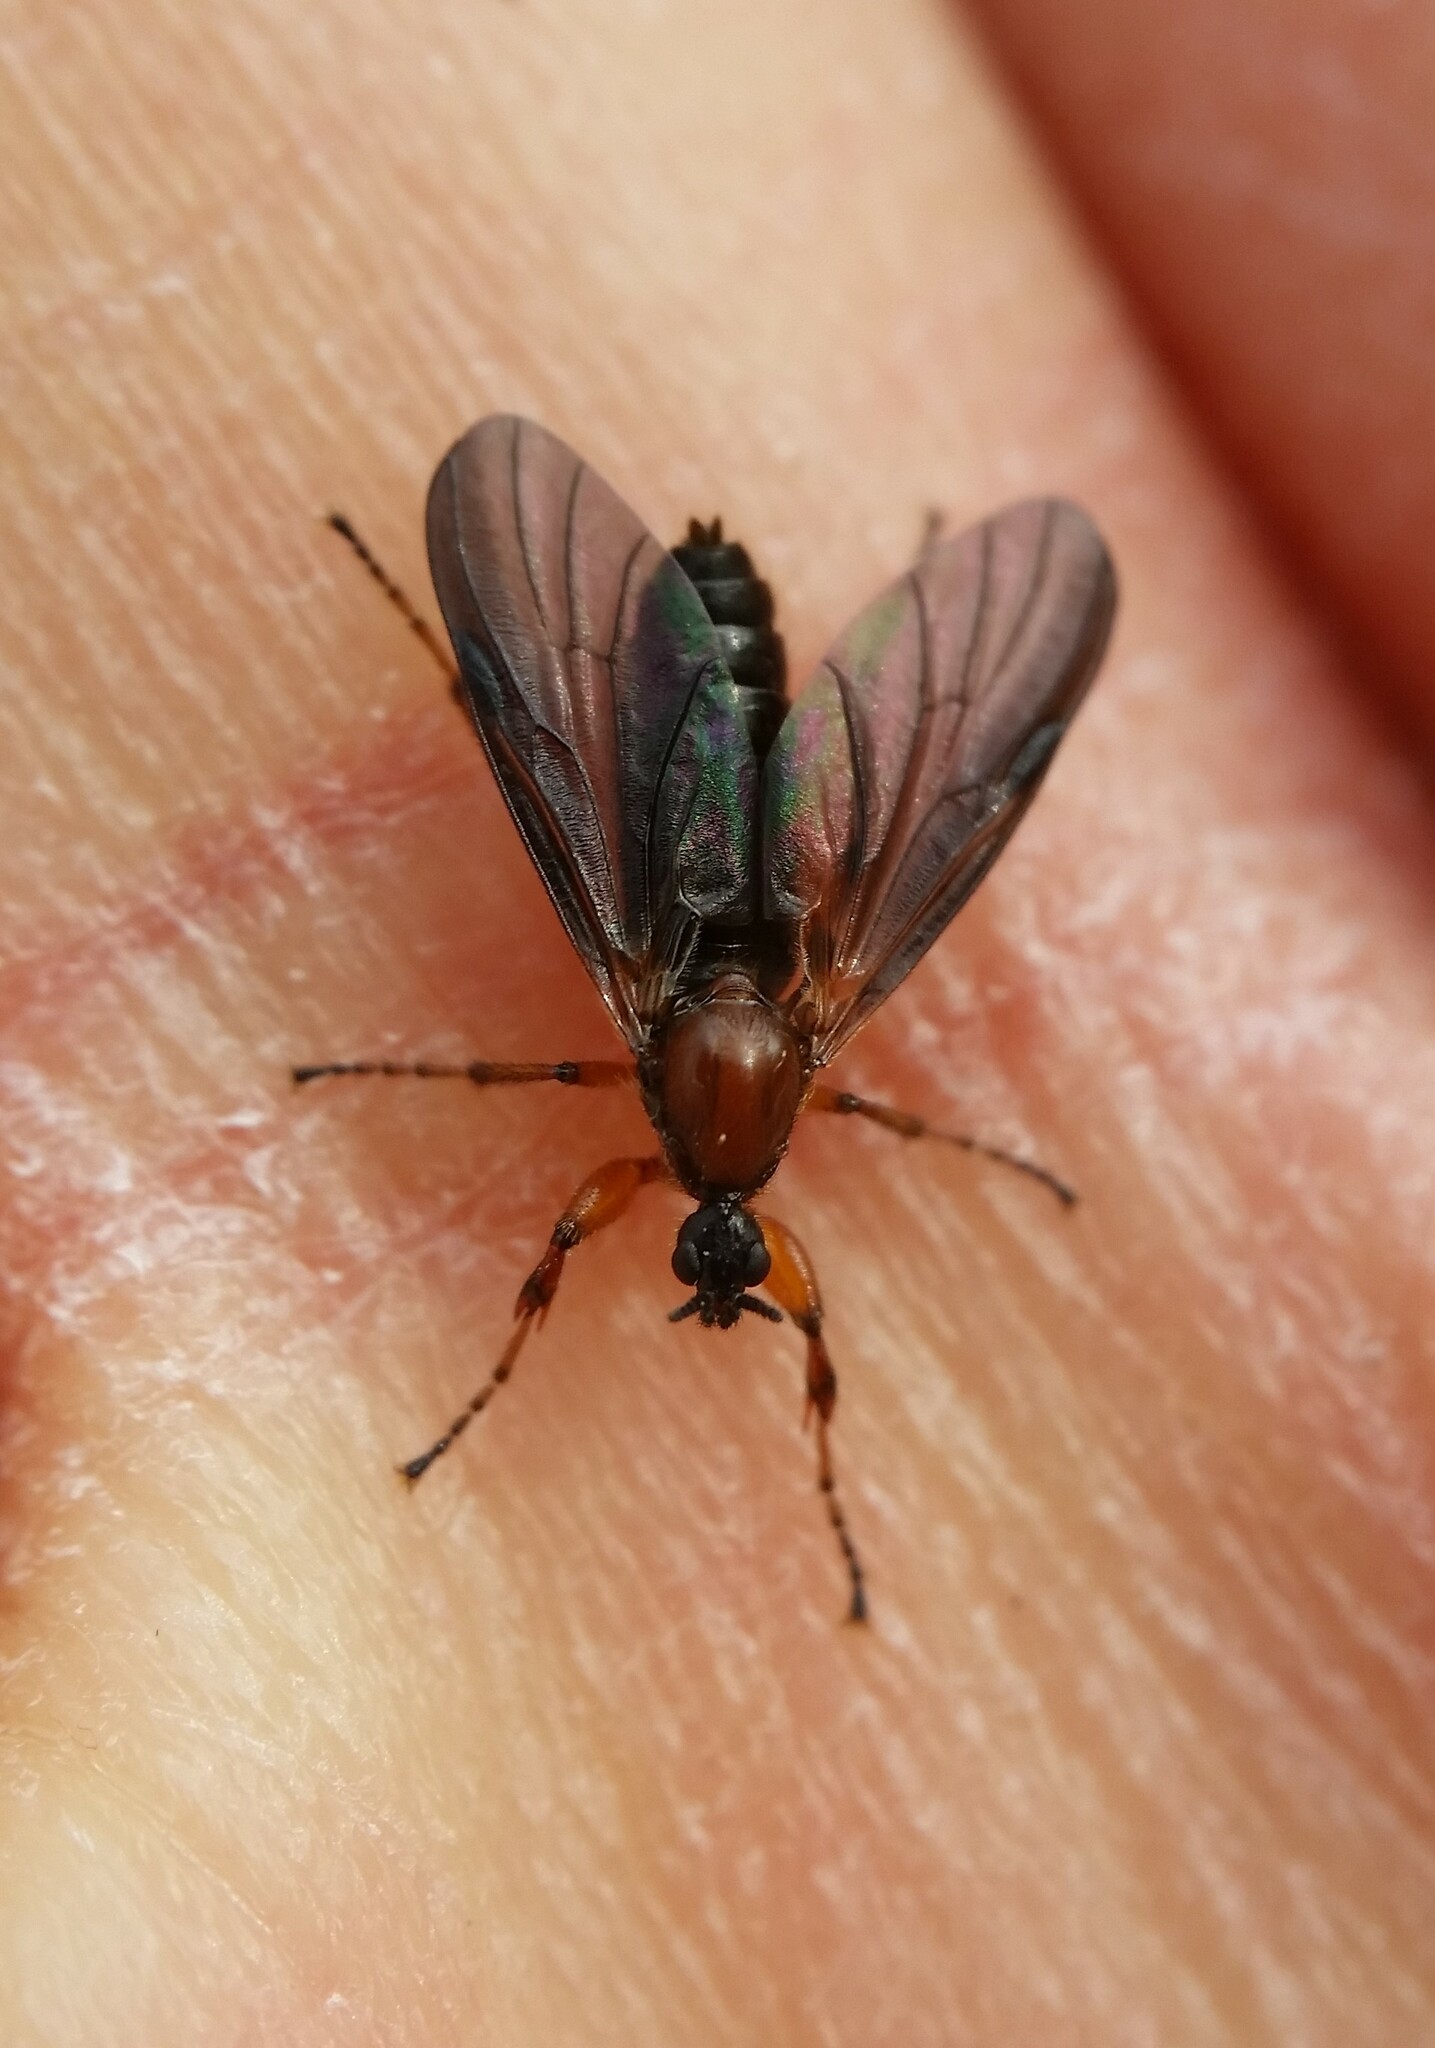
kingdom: Animalia
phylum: Arthropoda
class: Insecta
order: Diptera
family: Bibionidae
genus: Bibio
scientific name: Bibio articulatus
